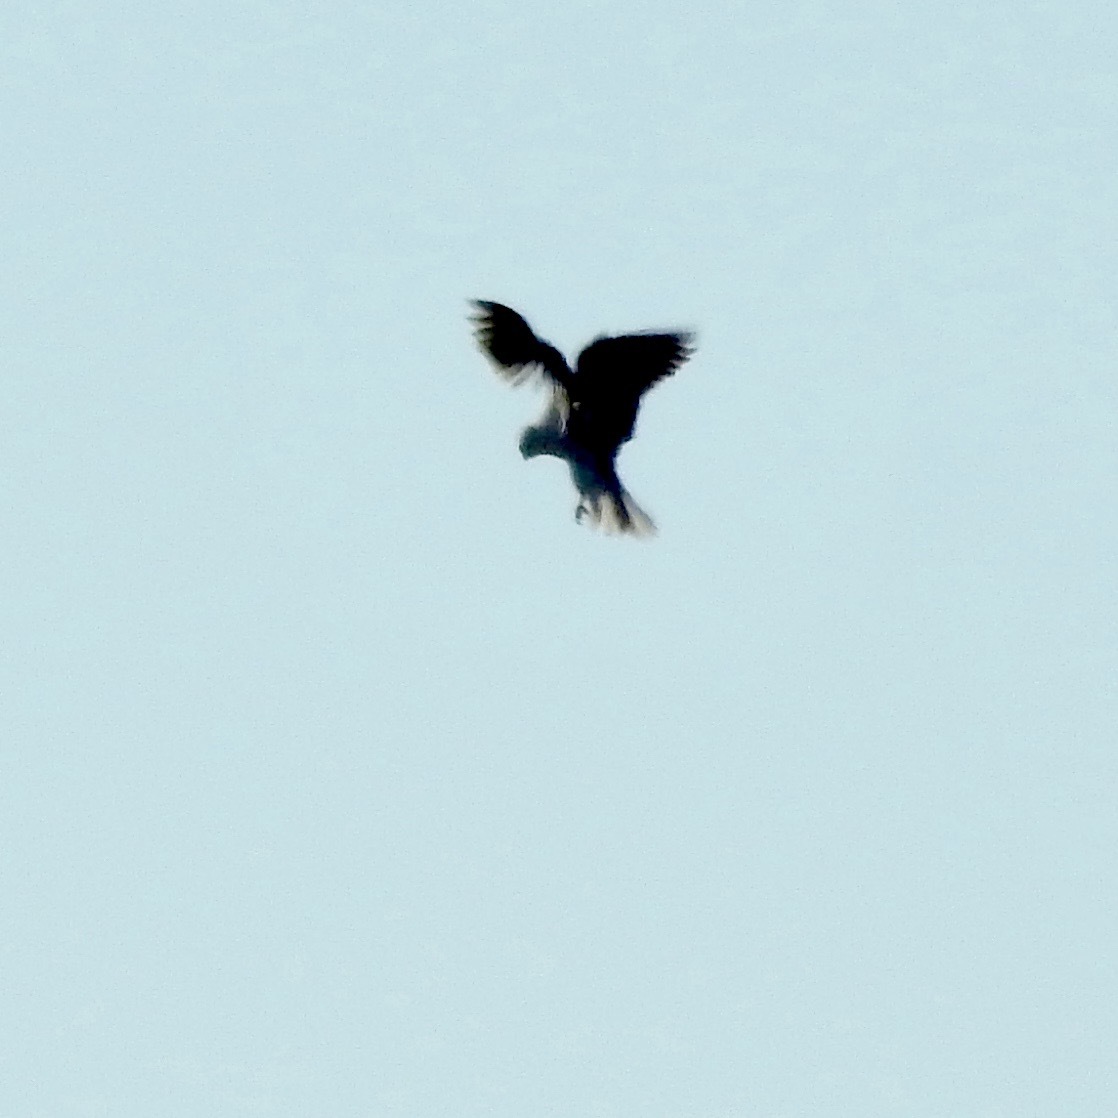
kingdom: Animalia
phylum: Chordata
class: Aves
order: Accipitriformes
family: Accipitridae
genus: Elanus
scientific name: Elanus leucurus
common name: White-tailed kite
